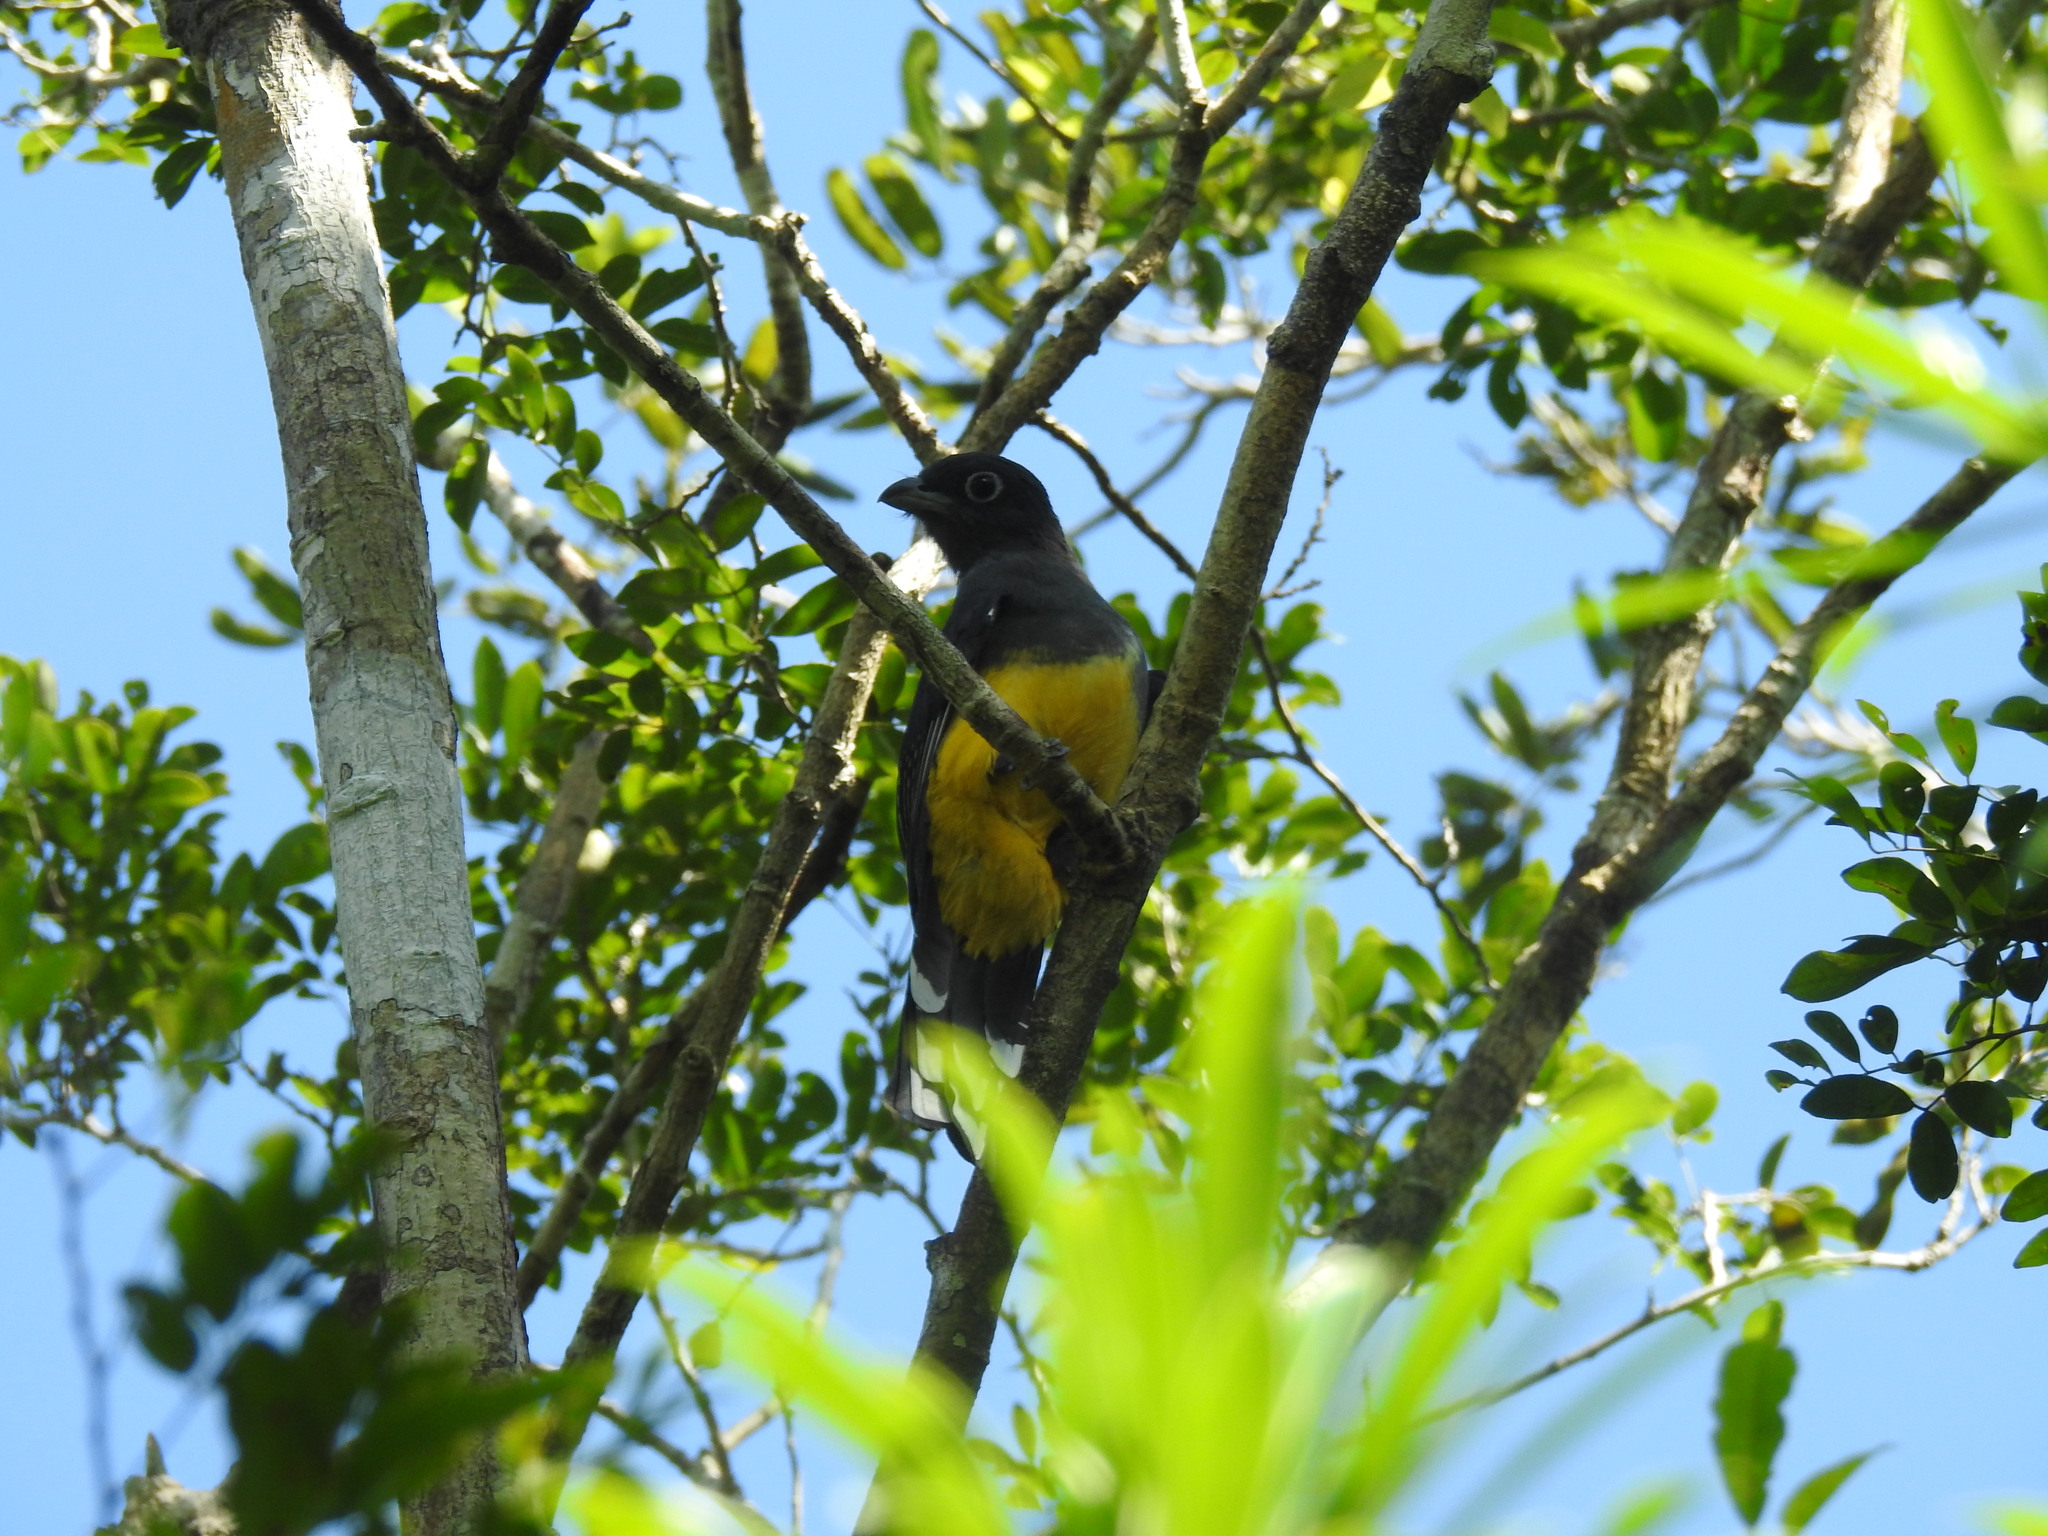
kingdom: Animalia
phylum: Chordata
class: Aves
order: Trogoniformes
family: Trogonidae
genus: Trogon
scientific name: Trogon melanocephalus
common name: Black-headed trogon
